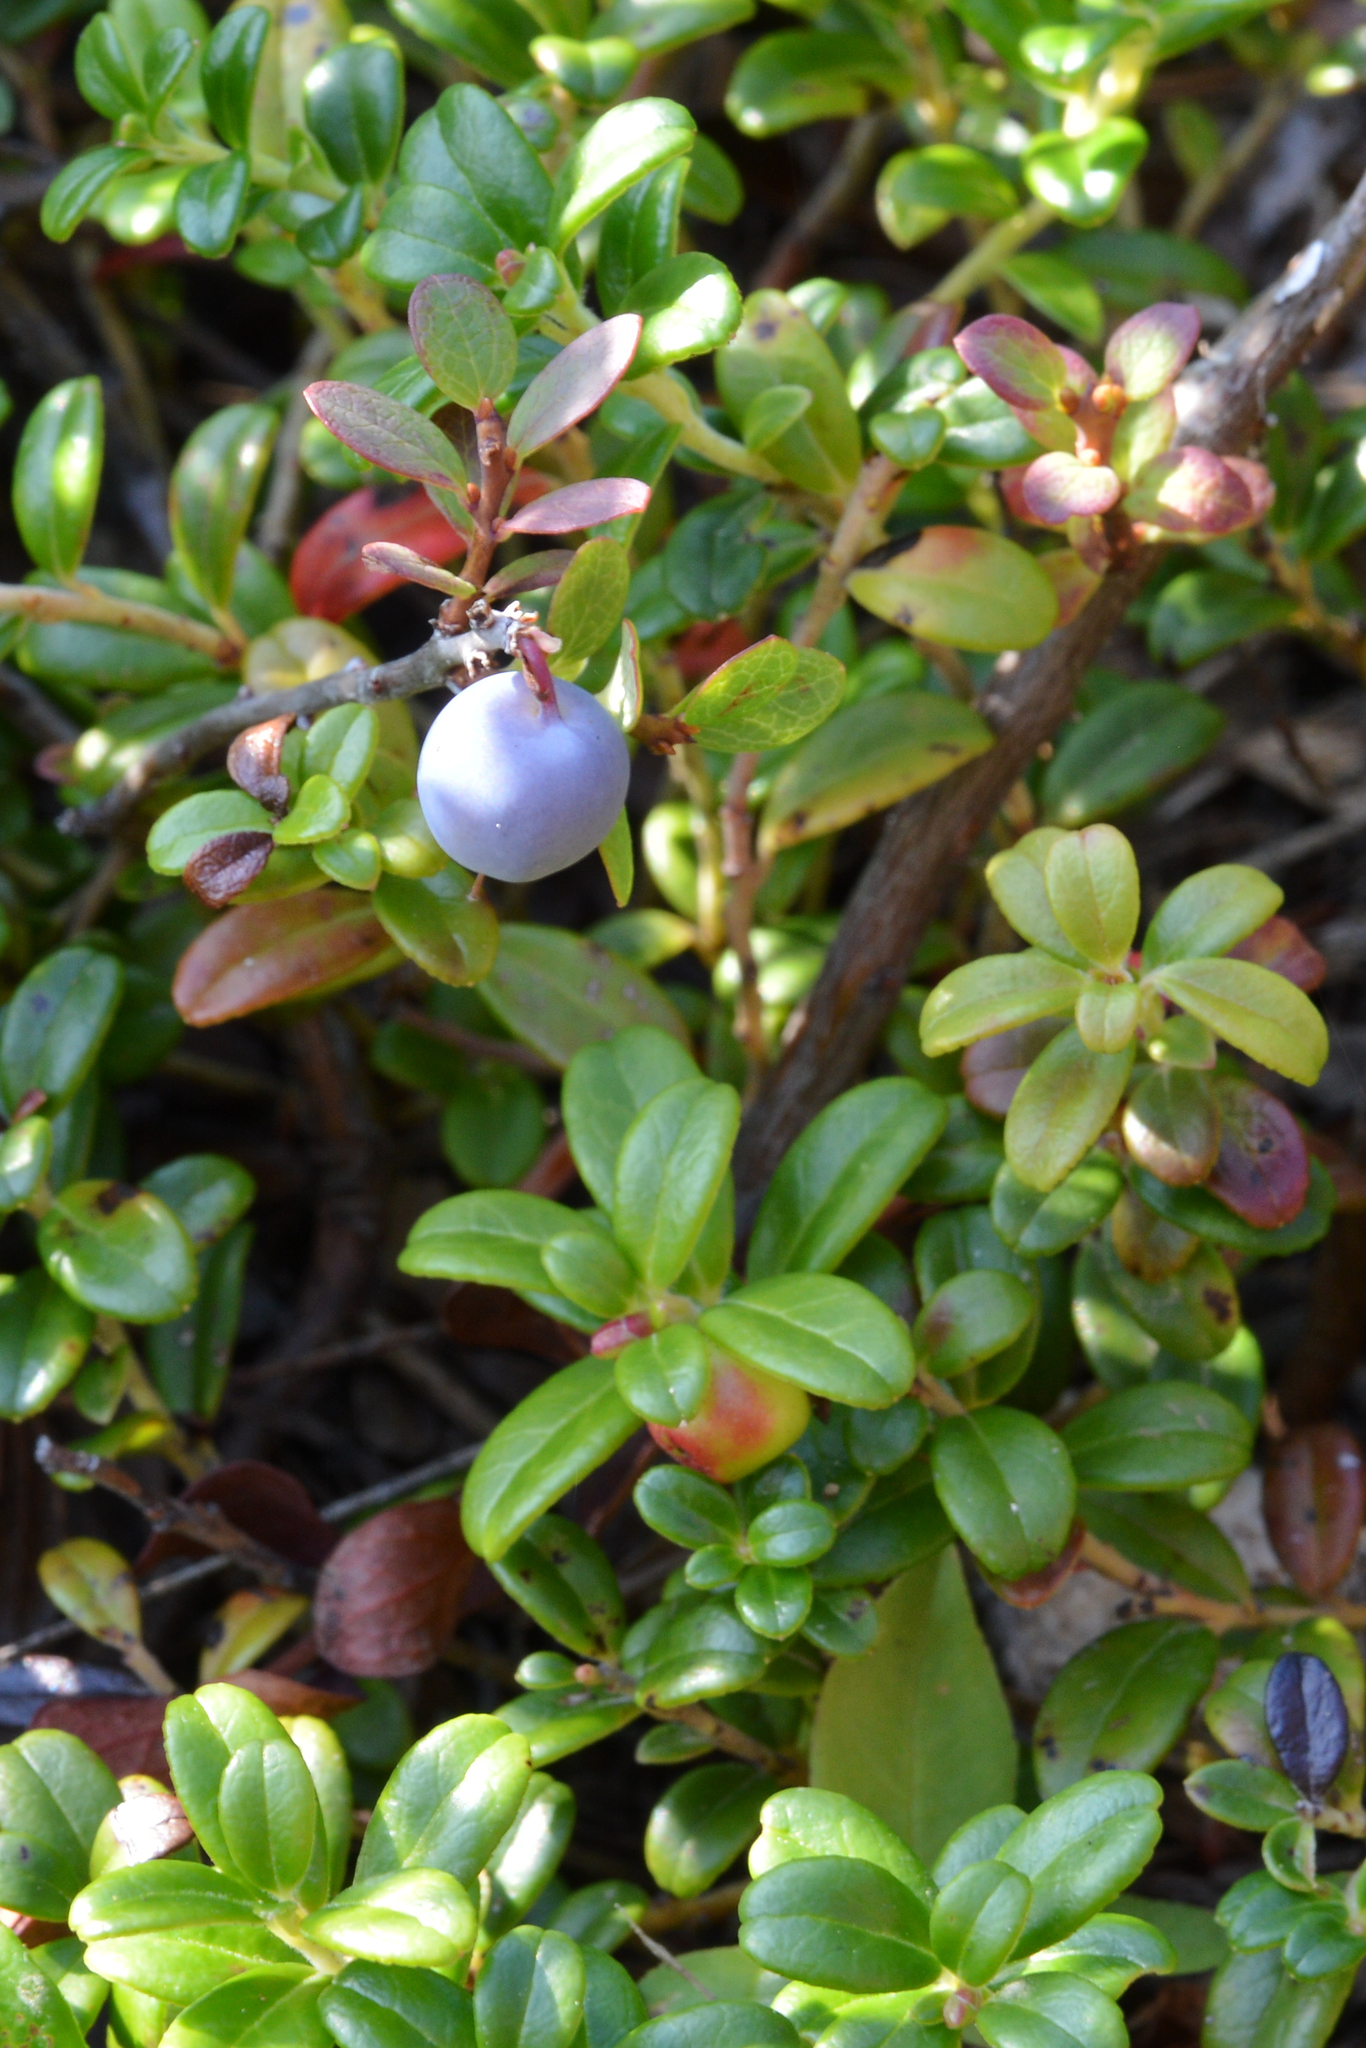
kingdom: Plantae
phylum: Tracheophyta
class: Magnoliopsida
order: Ericales
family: Ericaceae
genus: Vaccinium
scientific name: Vaccinium uliginosum
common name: Bog bilberry
